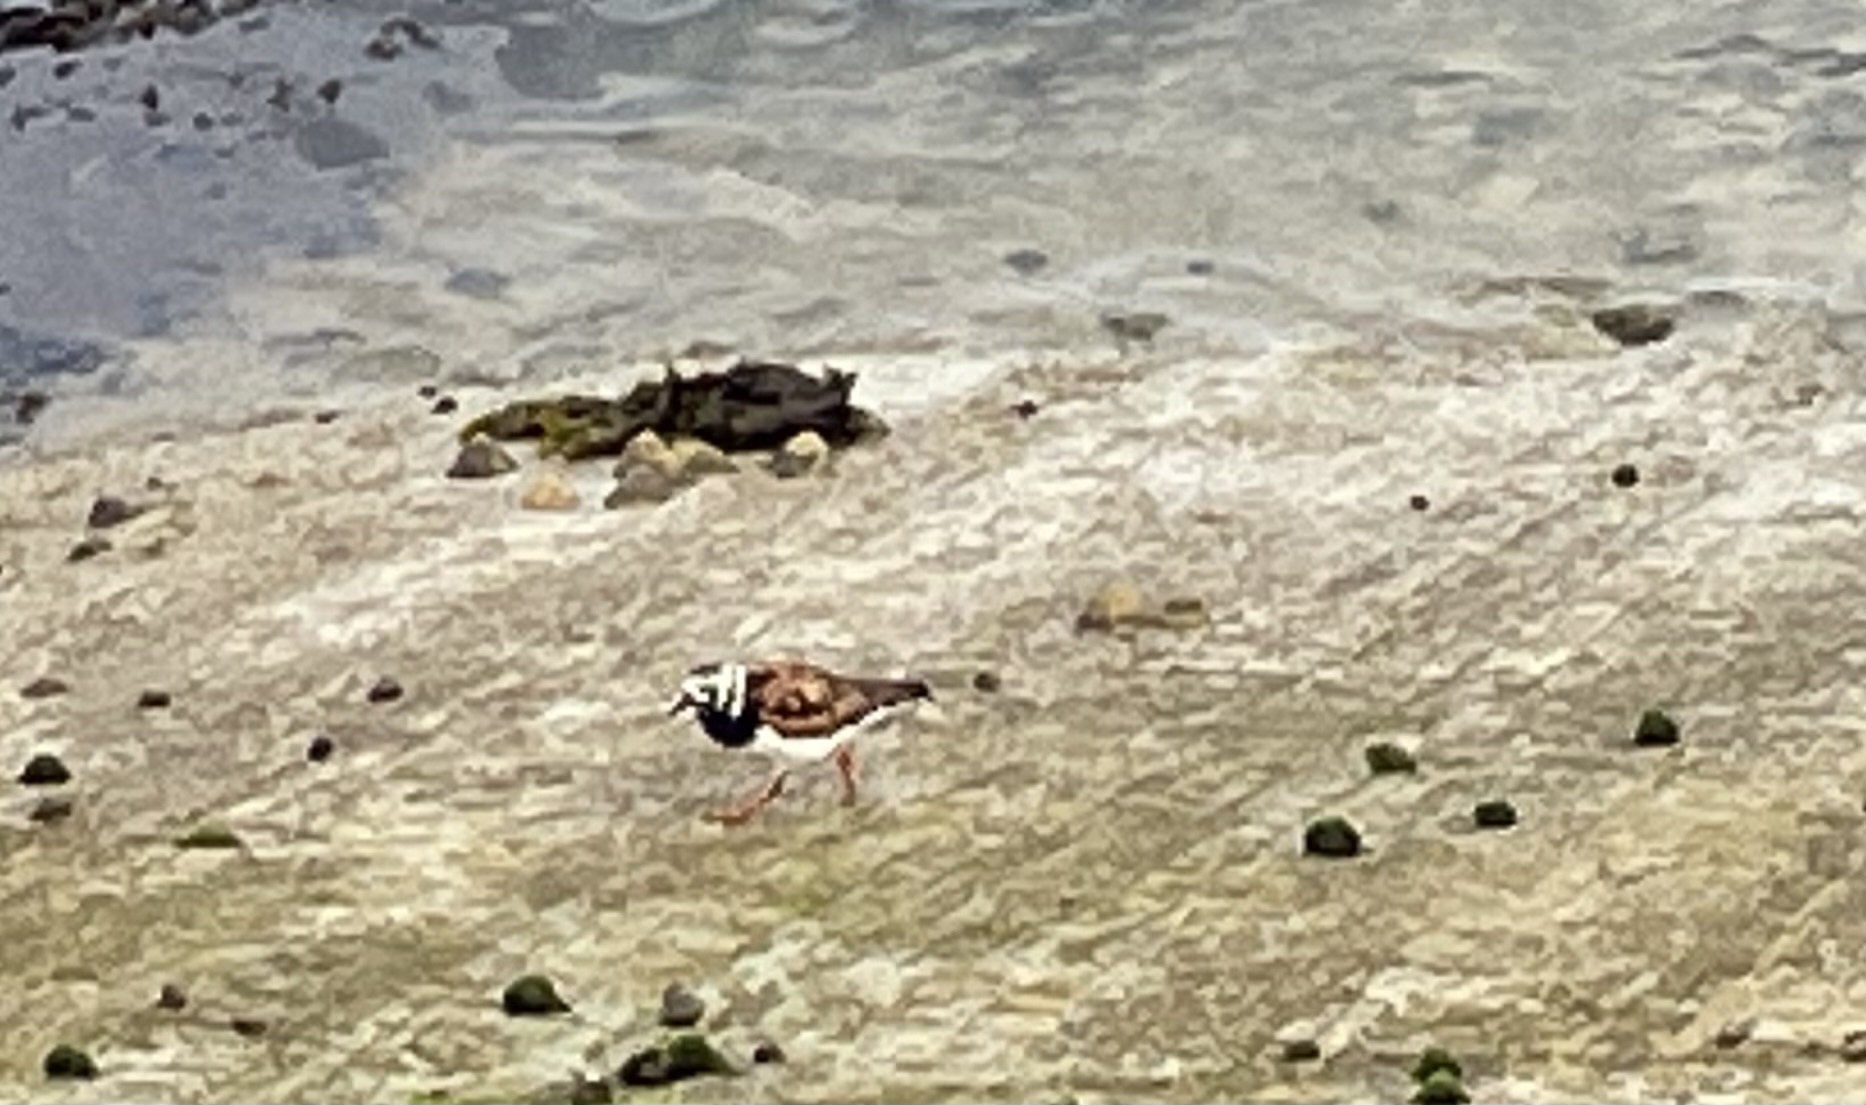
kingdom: Animalia
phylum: Chordata
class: Aves
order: Charadriiformes
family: Scolopacidae
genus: Arenaria
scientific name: Arenaria interpres
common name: Ruddy turnstone
